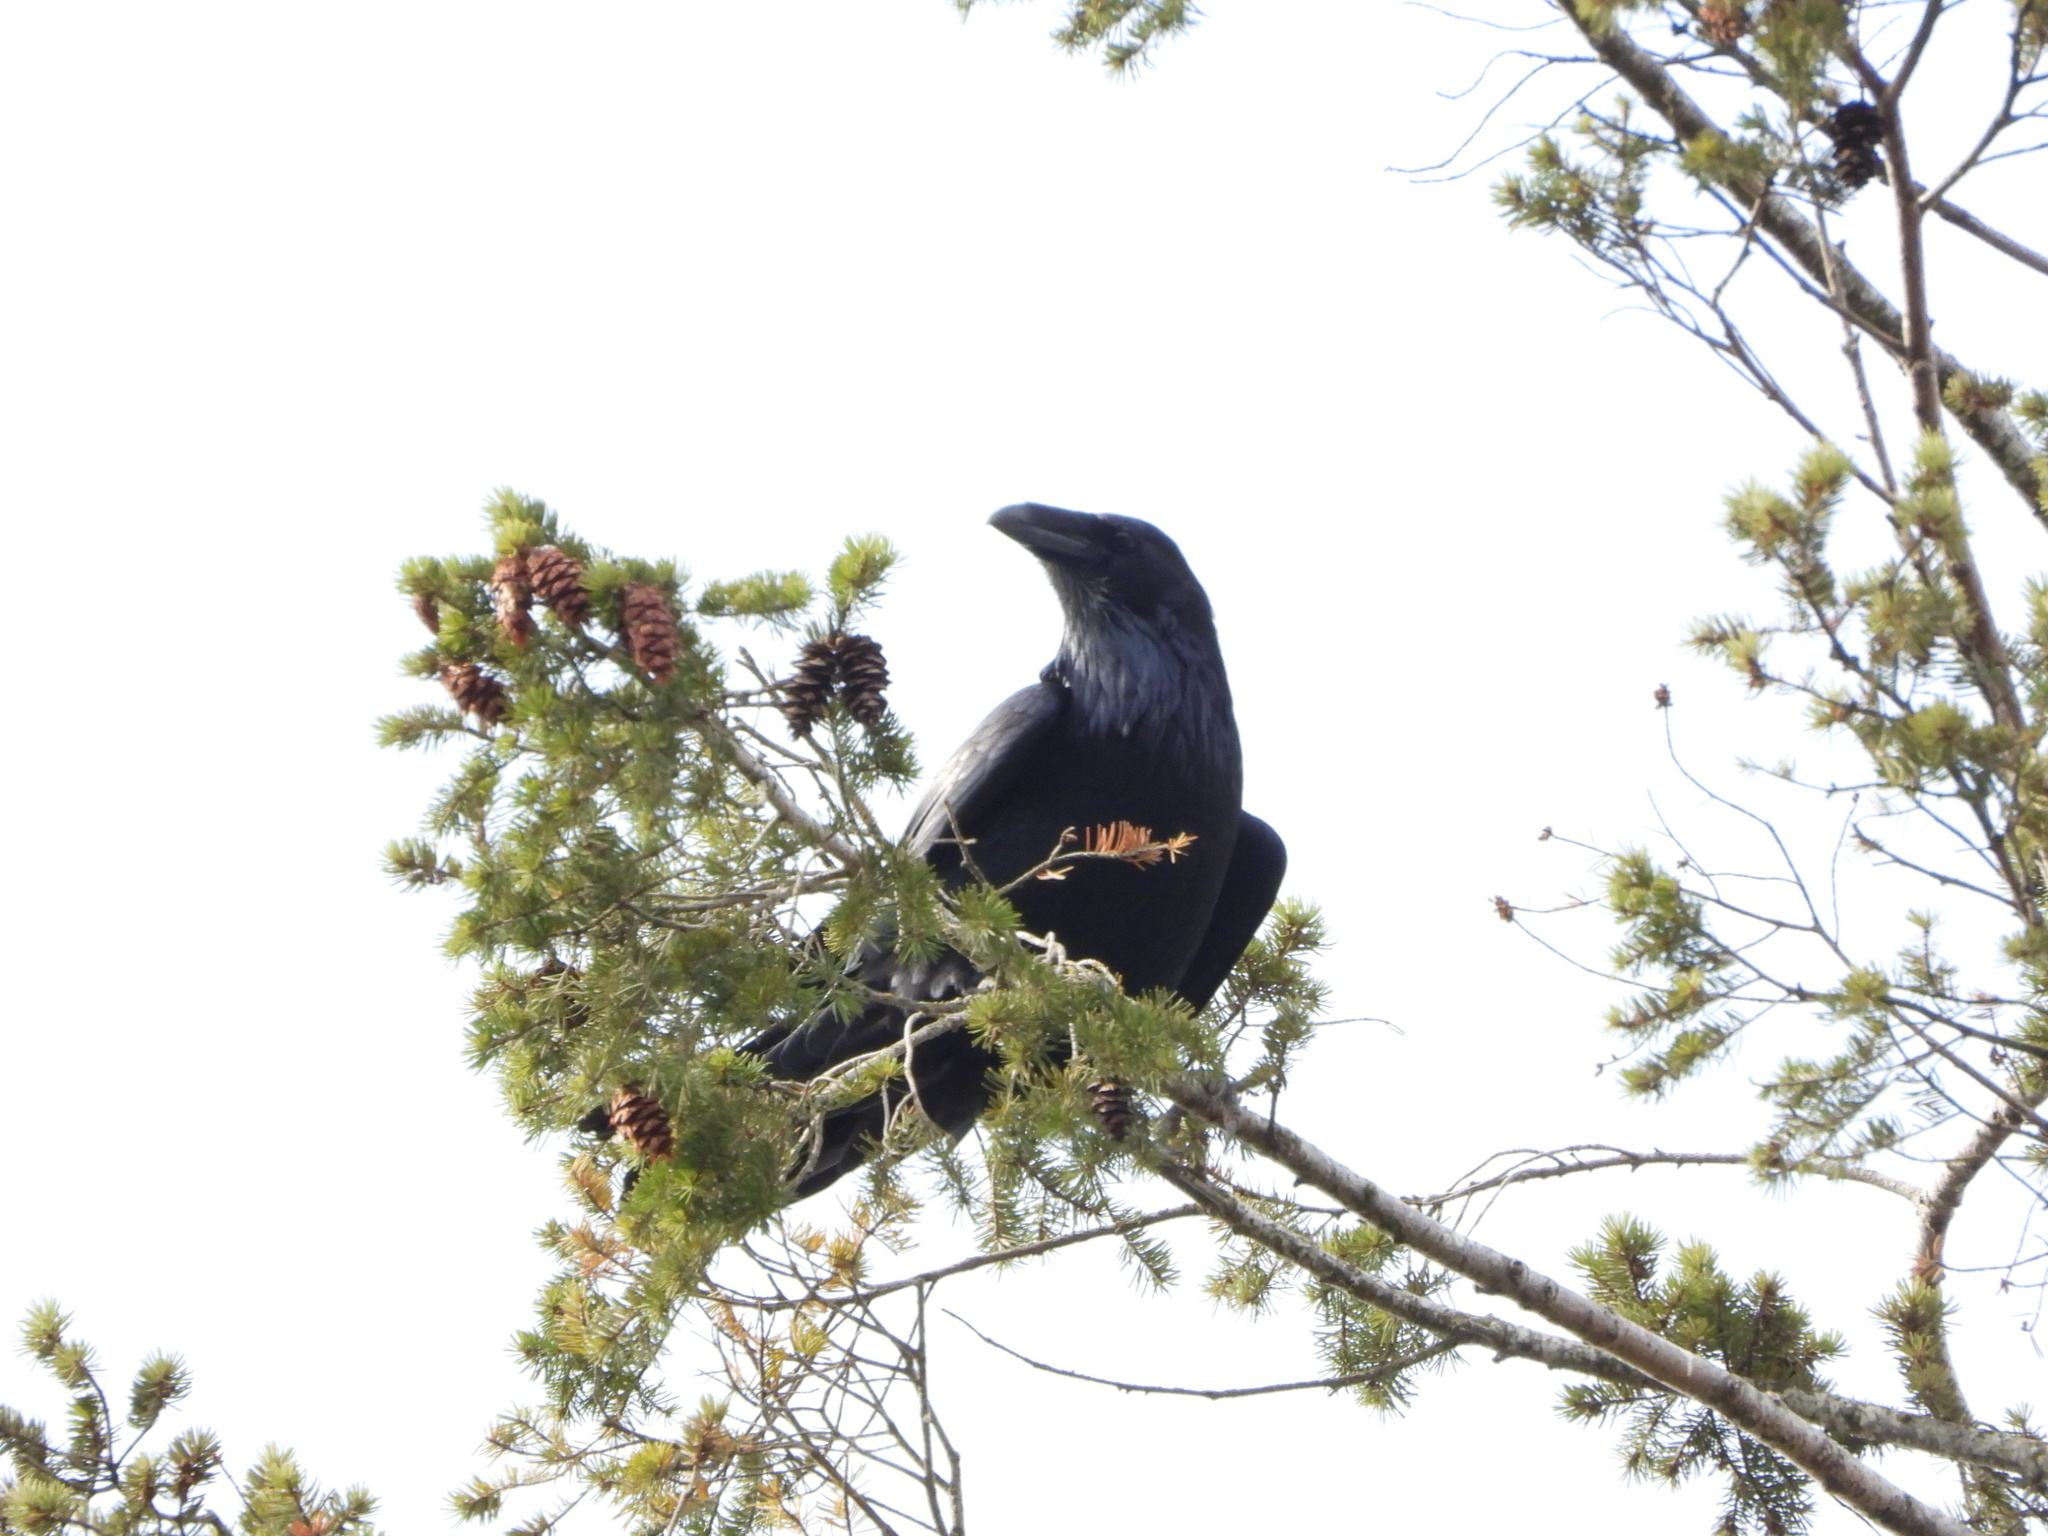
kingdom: Animalia
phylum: Chordata
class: Aves
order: Passeriformes
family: Corvidae
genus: Corvus
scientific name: Corvus corax
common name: Common raven
